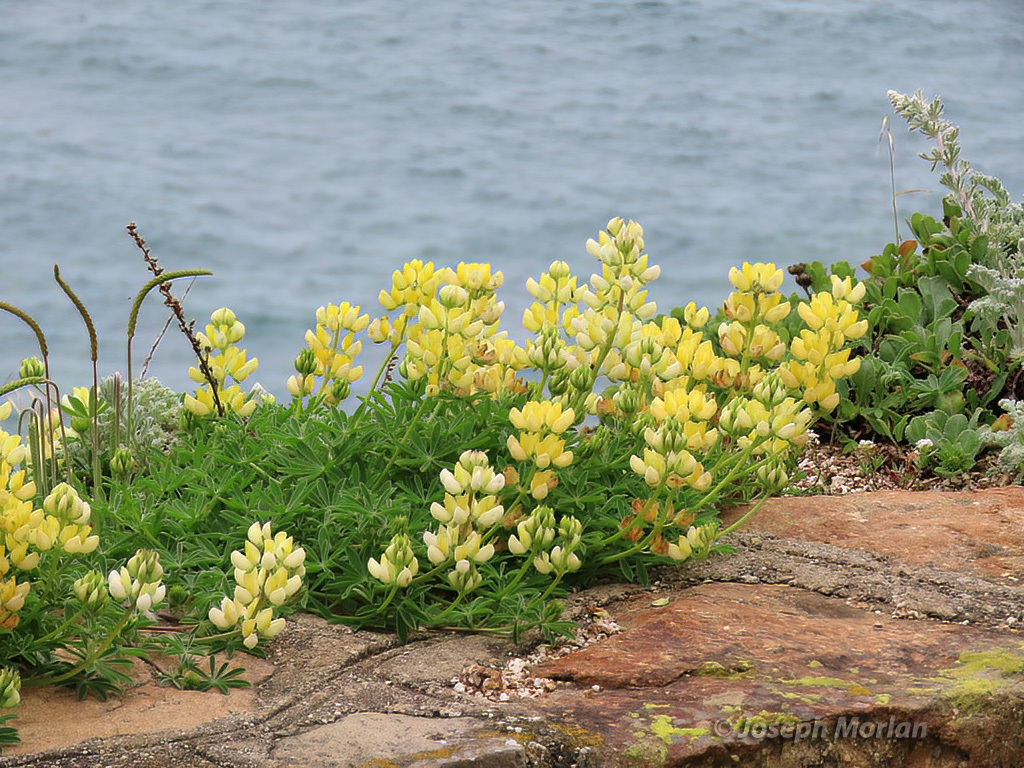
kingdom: Plantae
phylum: Tracheophyta
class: Magnoliopsida
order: Fabales
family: Fabaceae
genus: Lupinus
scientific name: Lupinus arboreus
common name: Yellow bush lupine
